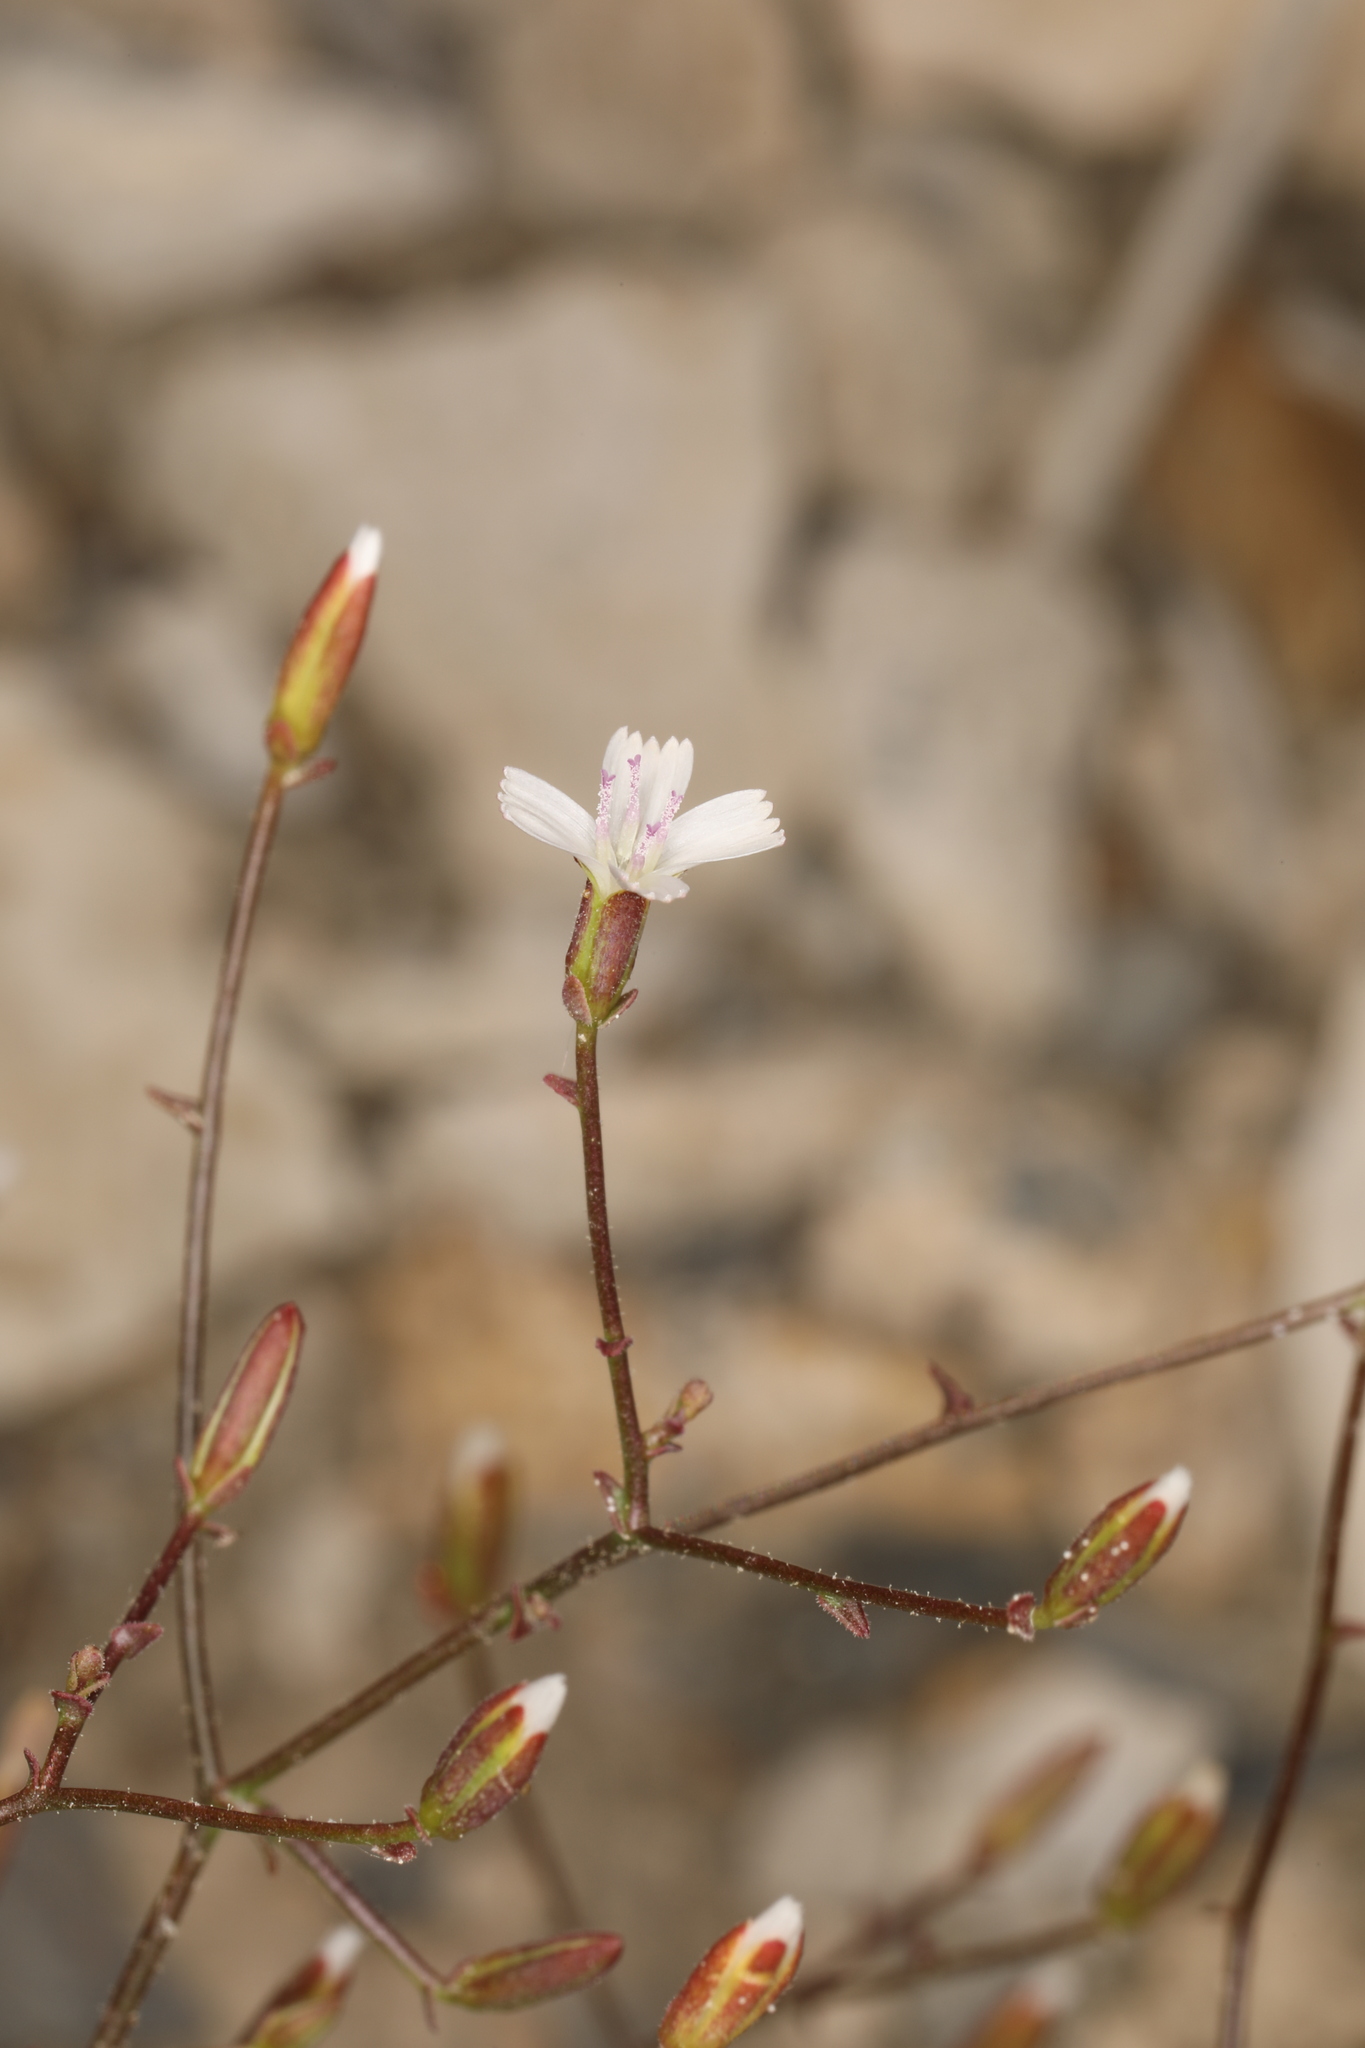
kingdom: Plantae
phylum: Tracheophyta
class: Magnoliopsida
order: Asterales
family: Asteraceae
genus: Lygodesmia
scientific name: Lygodesmia exigua
